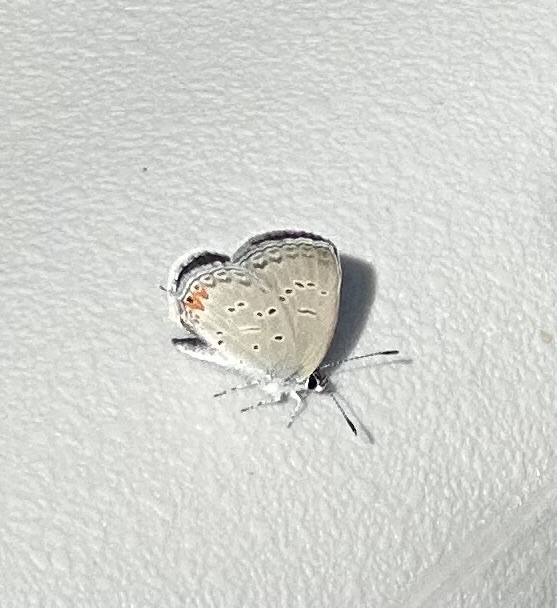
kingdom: Animalia
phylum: Arthropoda
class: Insecta
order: Lepidoptera
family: Lycaenidae
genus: Elkalyce
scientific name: Elkalyce comyntas
